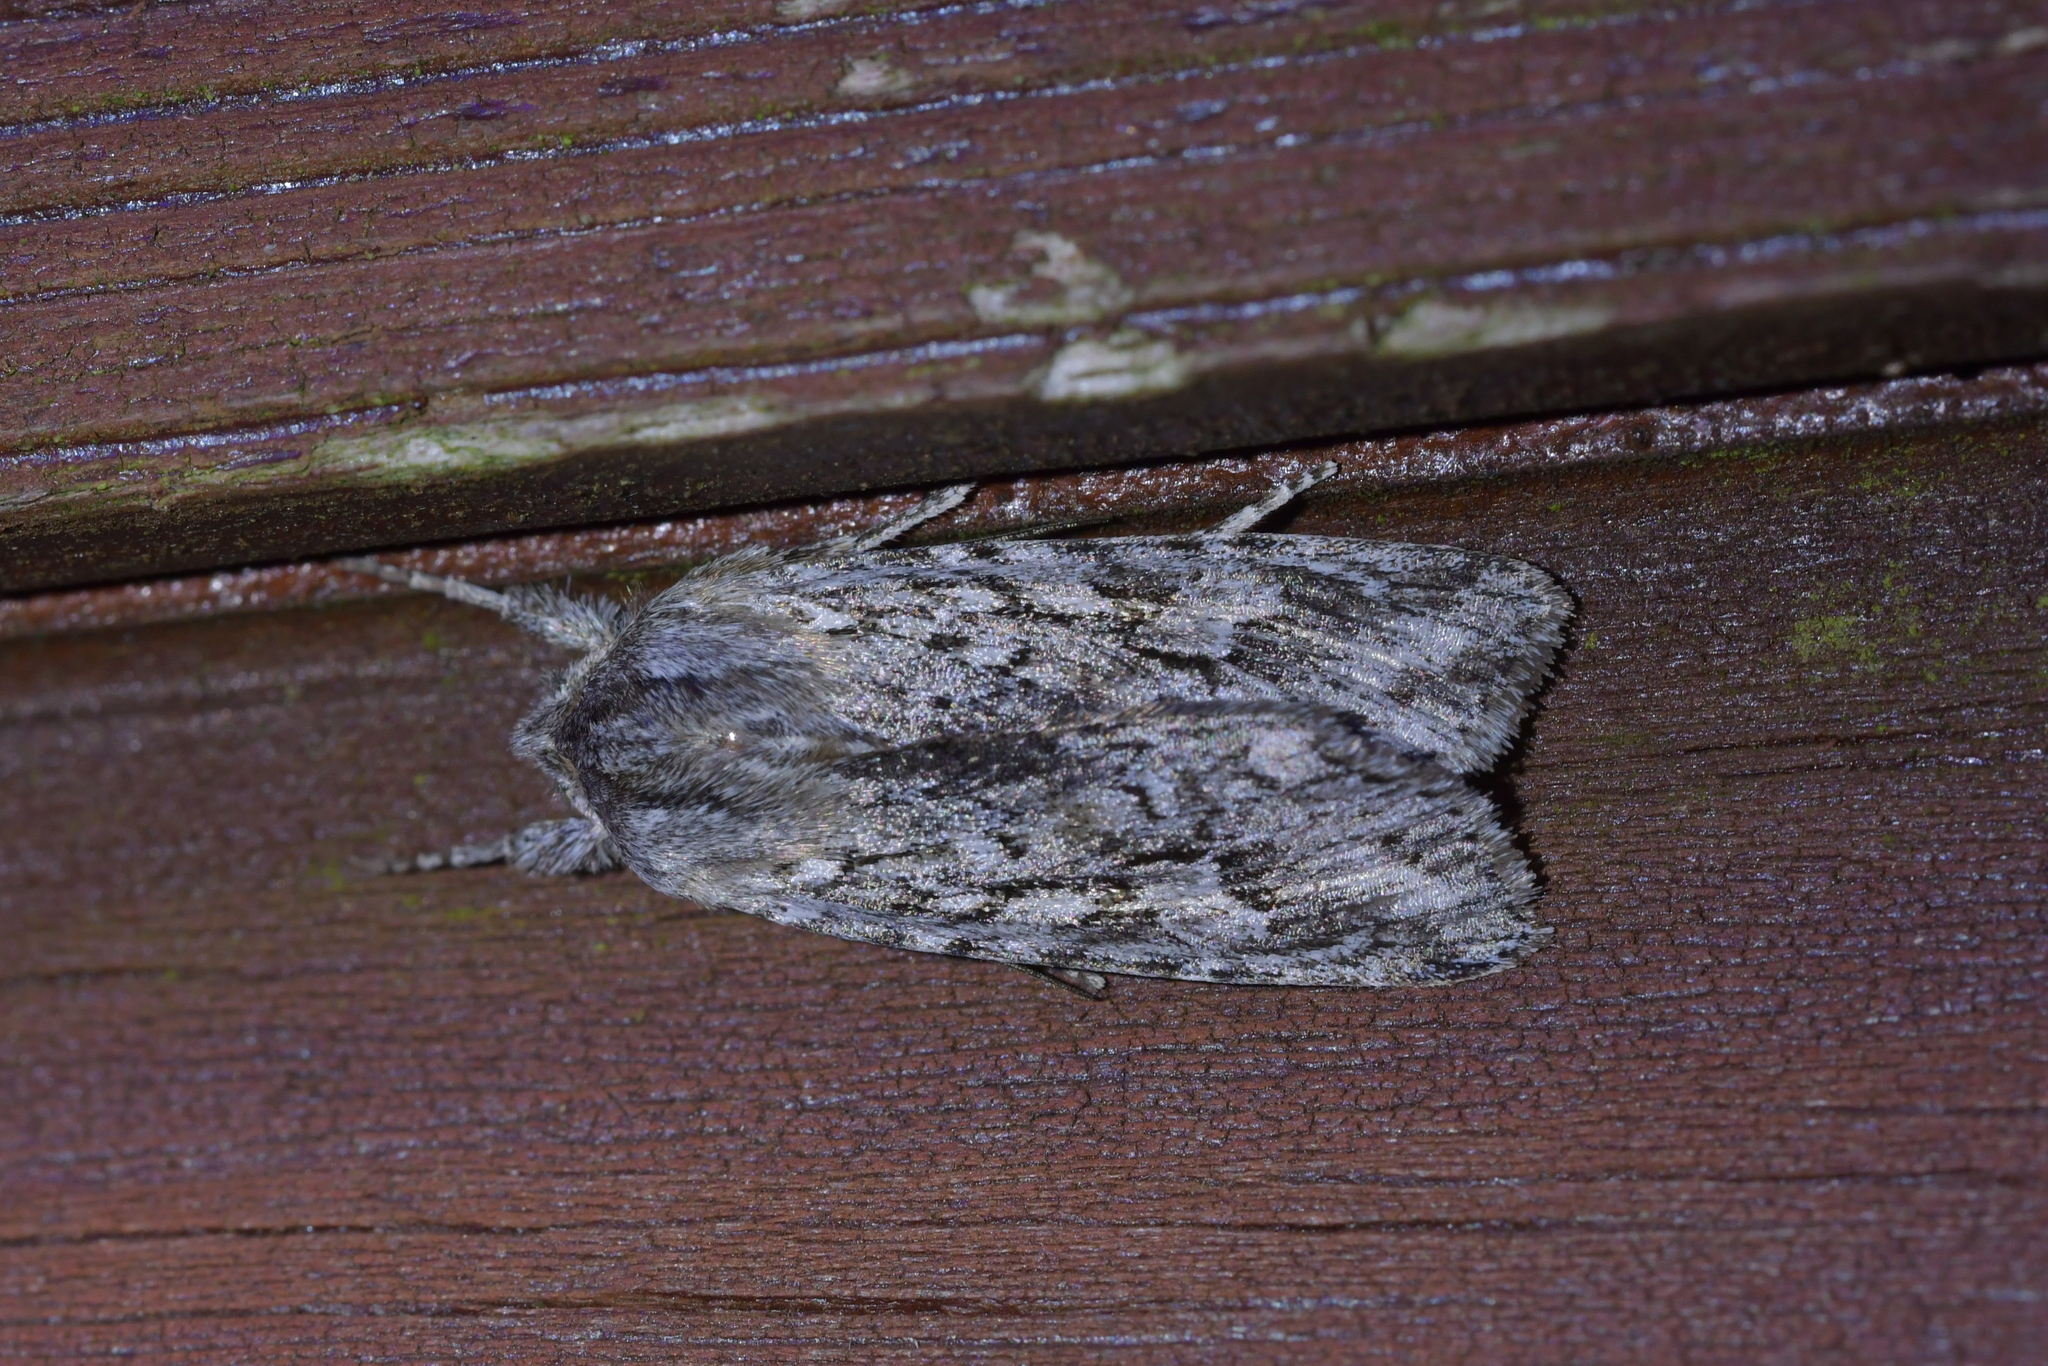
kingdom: Animalia
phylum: Arthropoda
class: Insecta
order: Lepidoptera
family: Noctuidae
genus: Physetica
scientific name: Physetica sequens
